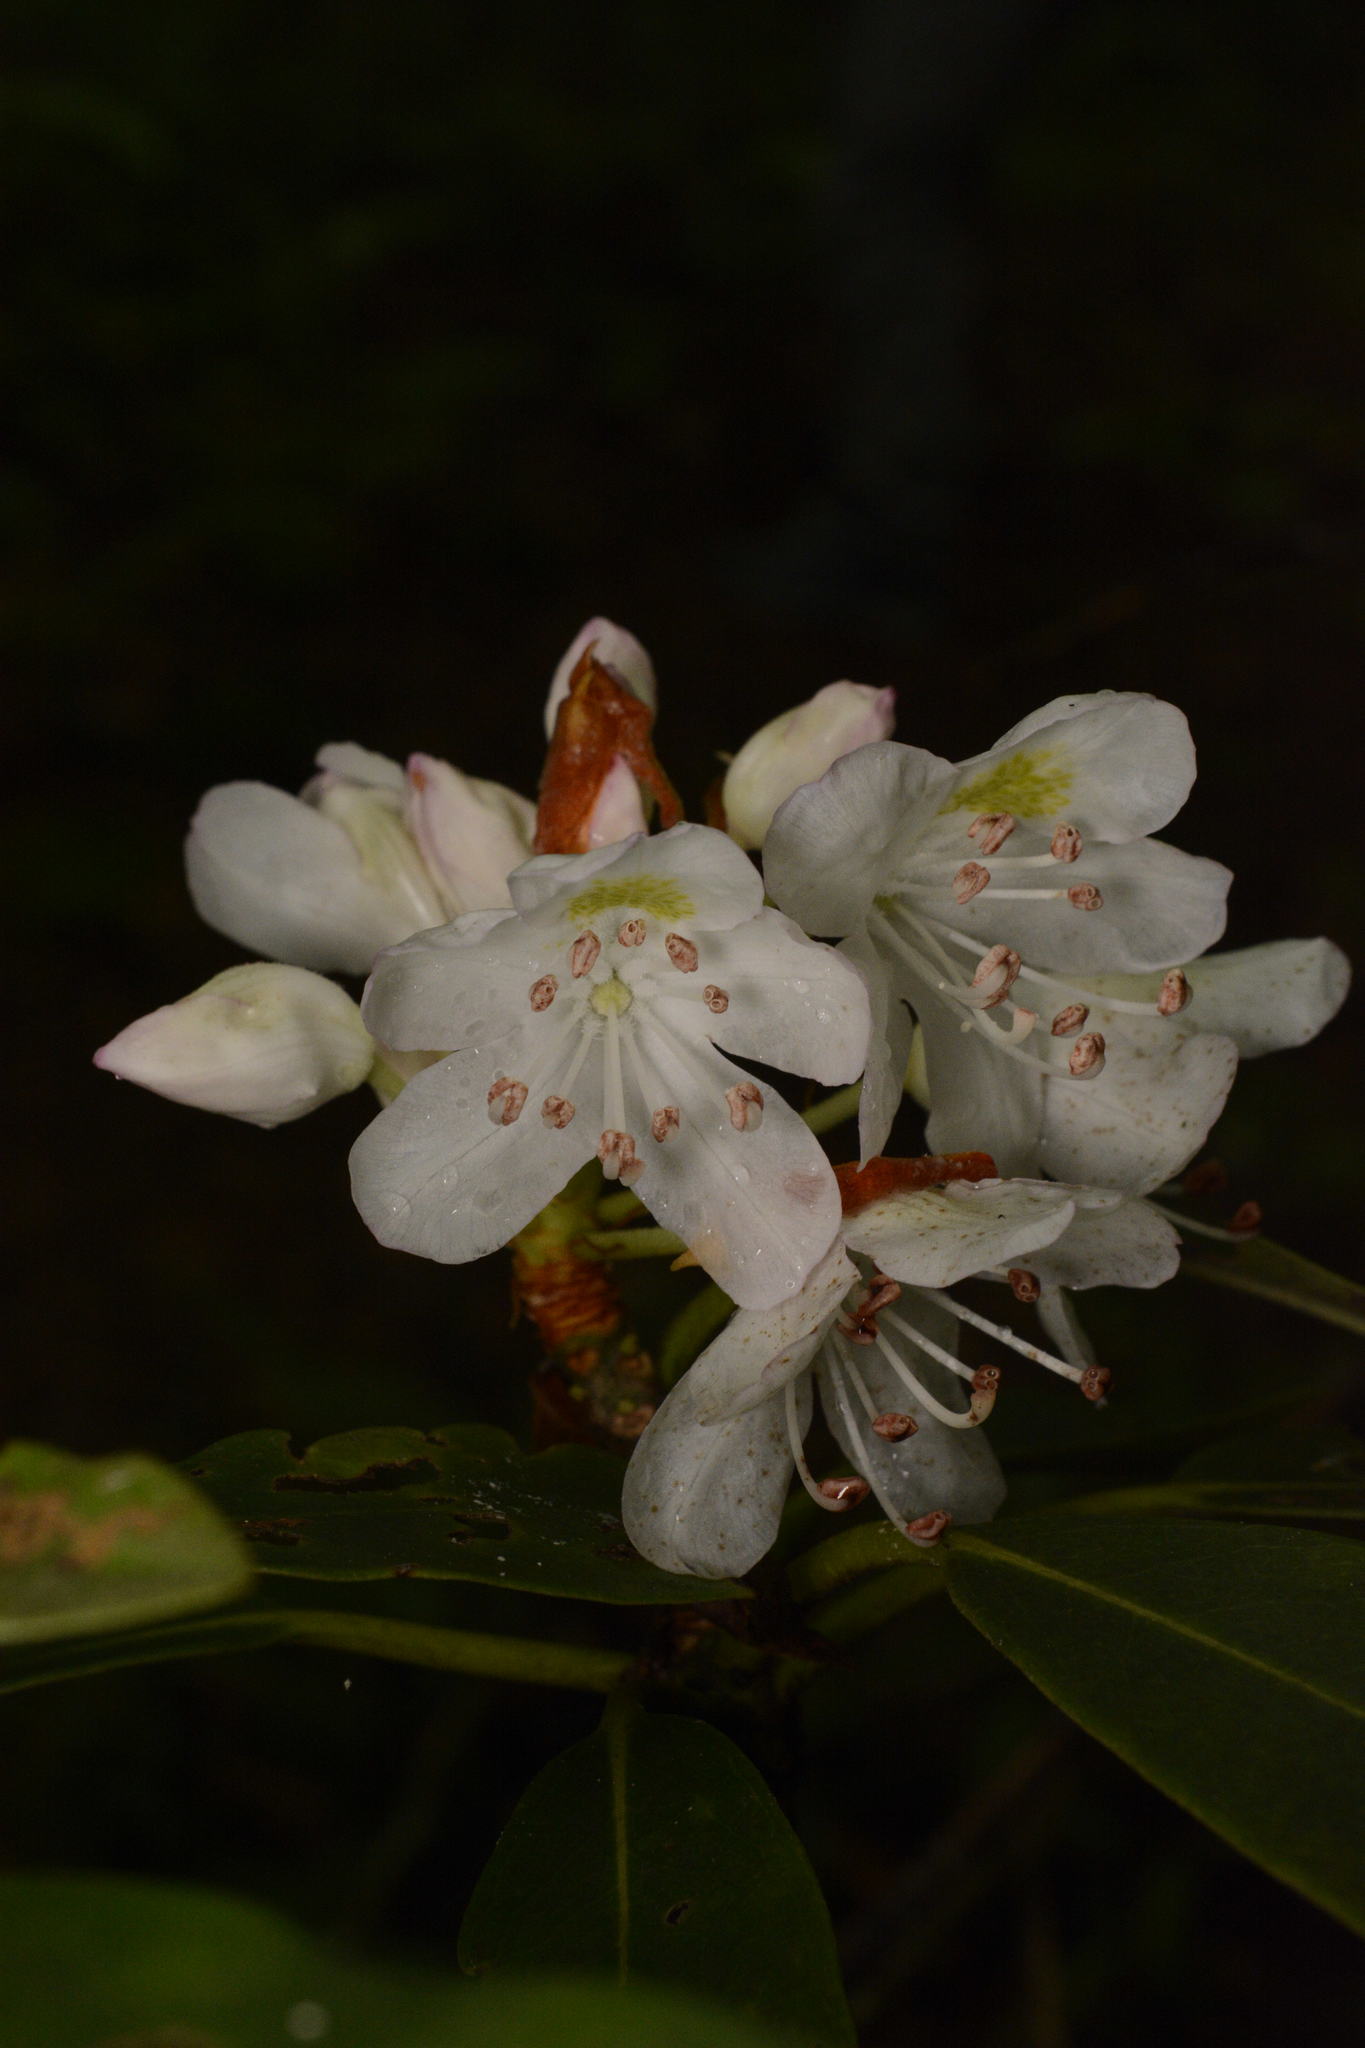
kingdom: Plantae
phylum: Tracheophyta
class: Magnoliopsida
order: Ericales
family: Ericaceae
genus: Rhododendron
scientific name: Rhododendron maximum
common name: Great rhododendron
